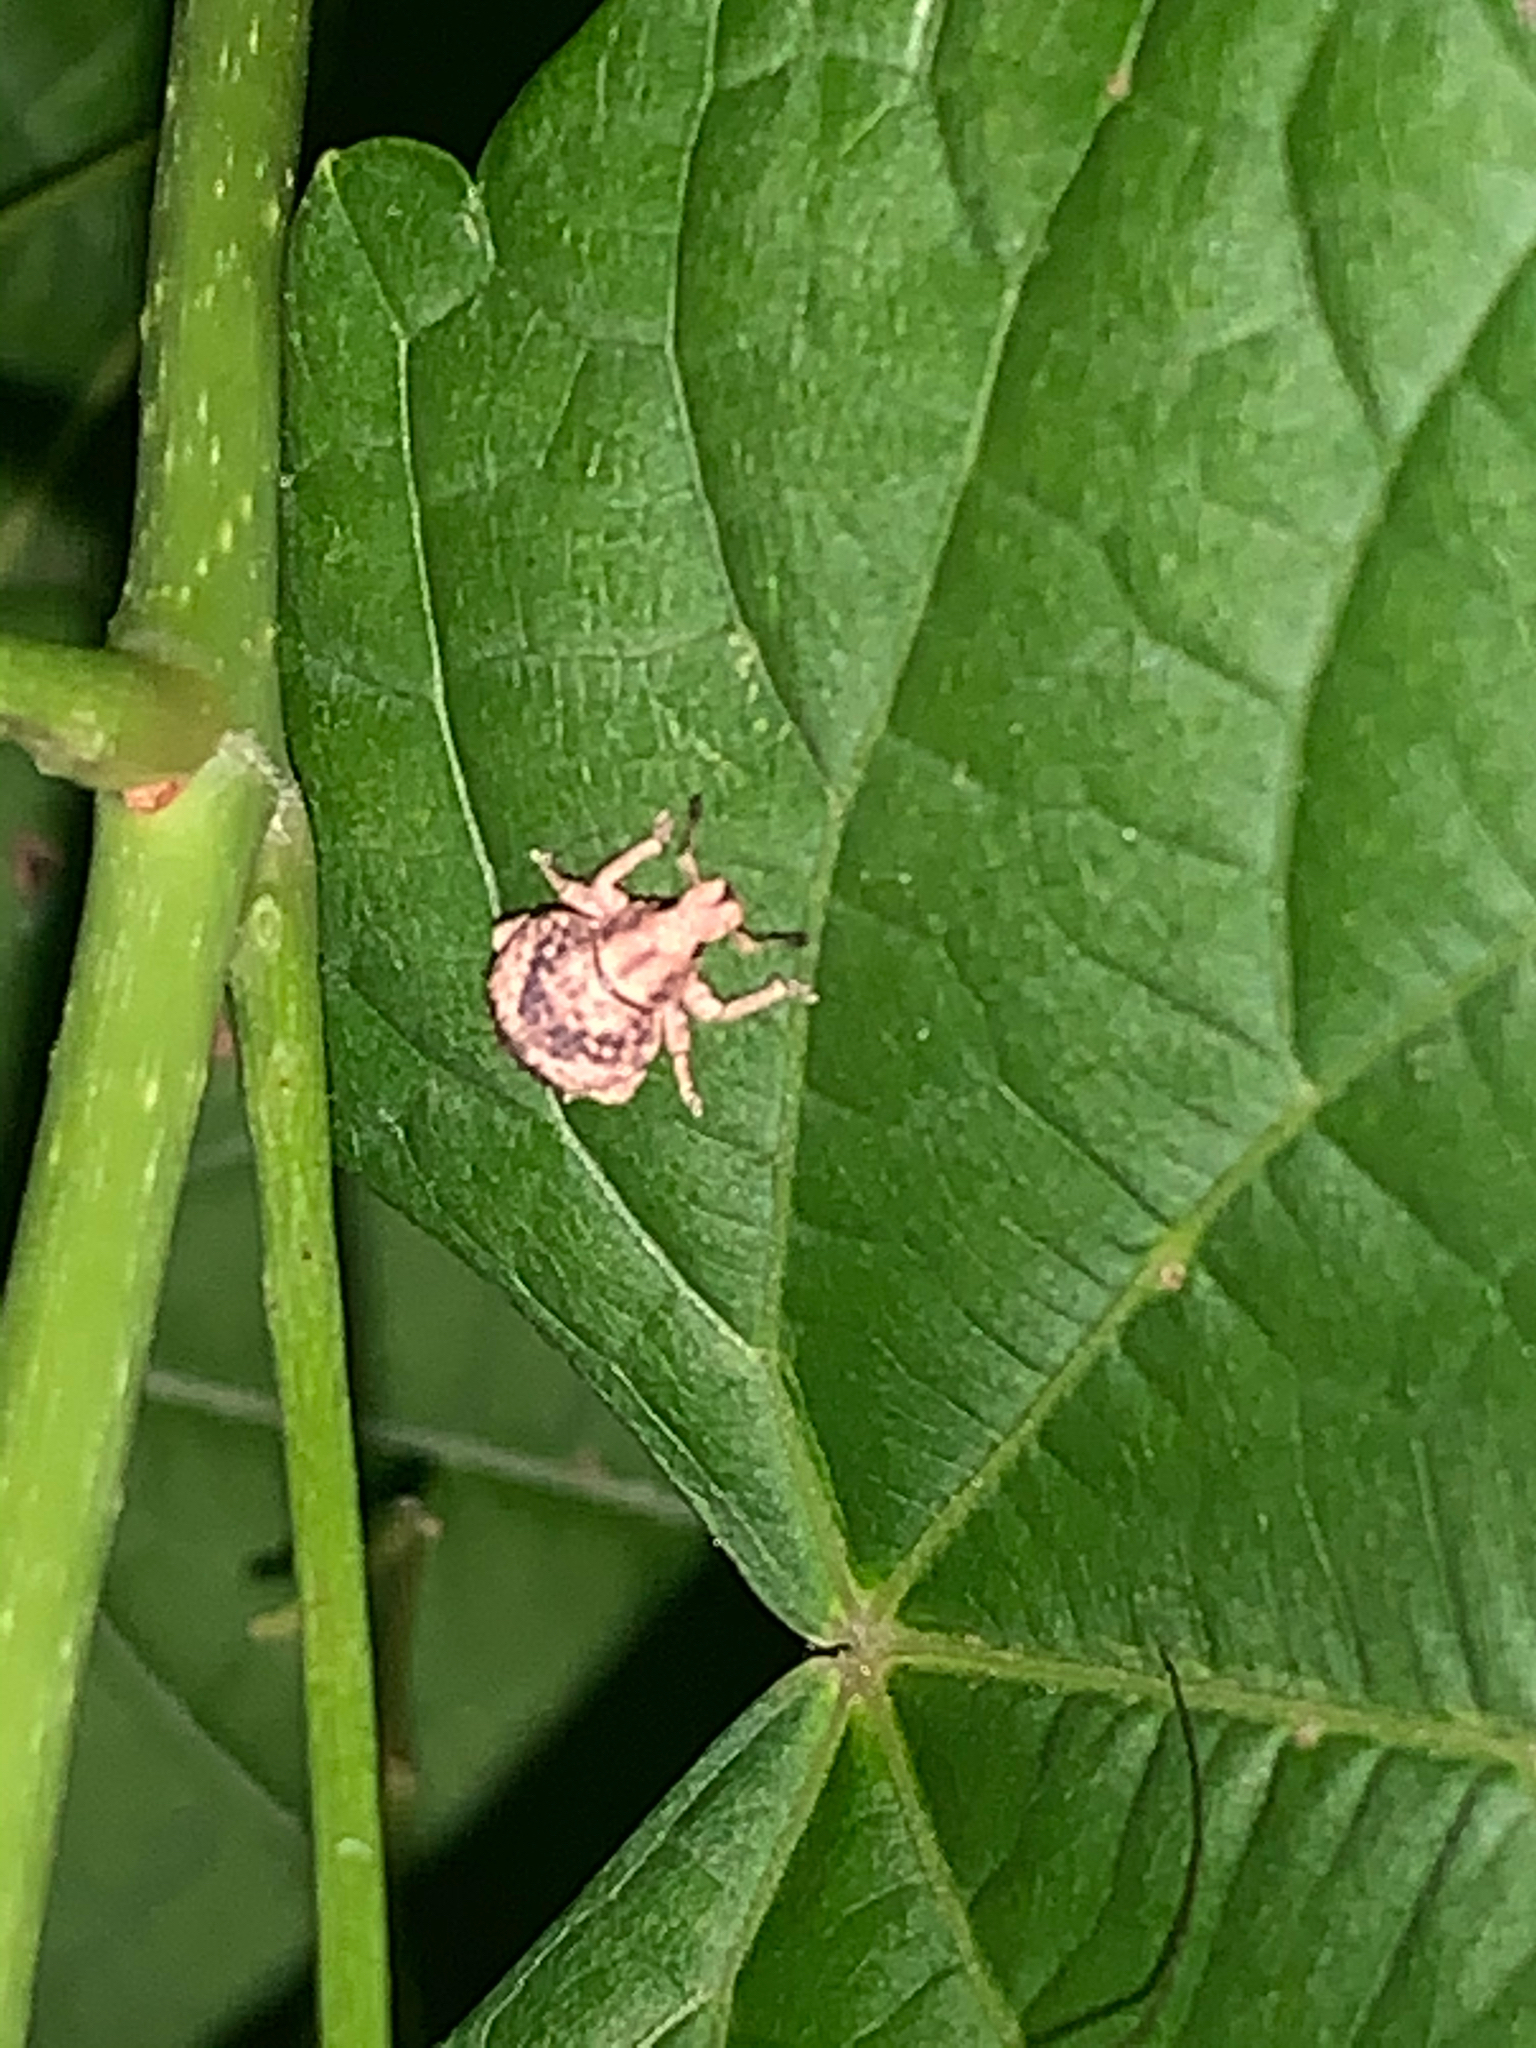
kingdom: Animalia
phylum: Arthropoda
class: Insecta
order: Coleoptera
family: Curculionidae
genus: Pseudocneorhinus
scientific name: Pseudocneorhinus bifasciatus
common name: Two-banded japanese weevil
